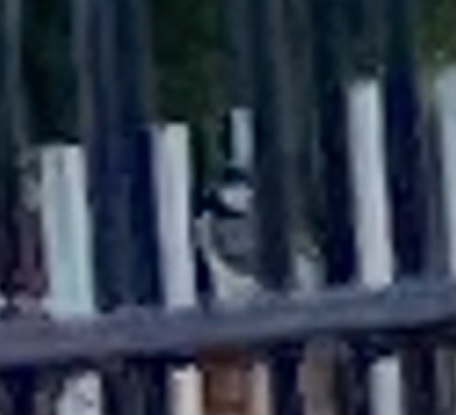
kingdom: Animalia
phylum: Chordata
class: Aves
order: Passeriformes
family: Paridae
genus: Parus
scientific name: Parus major
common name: Great tit
